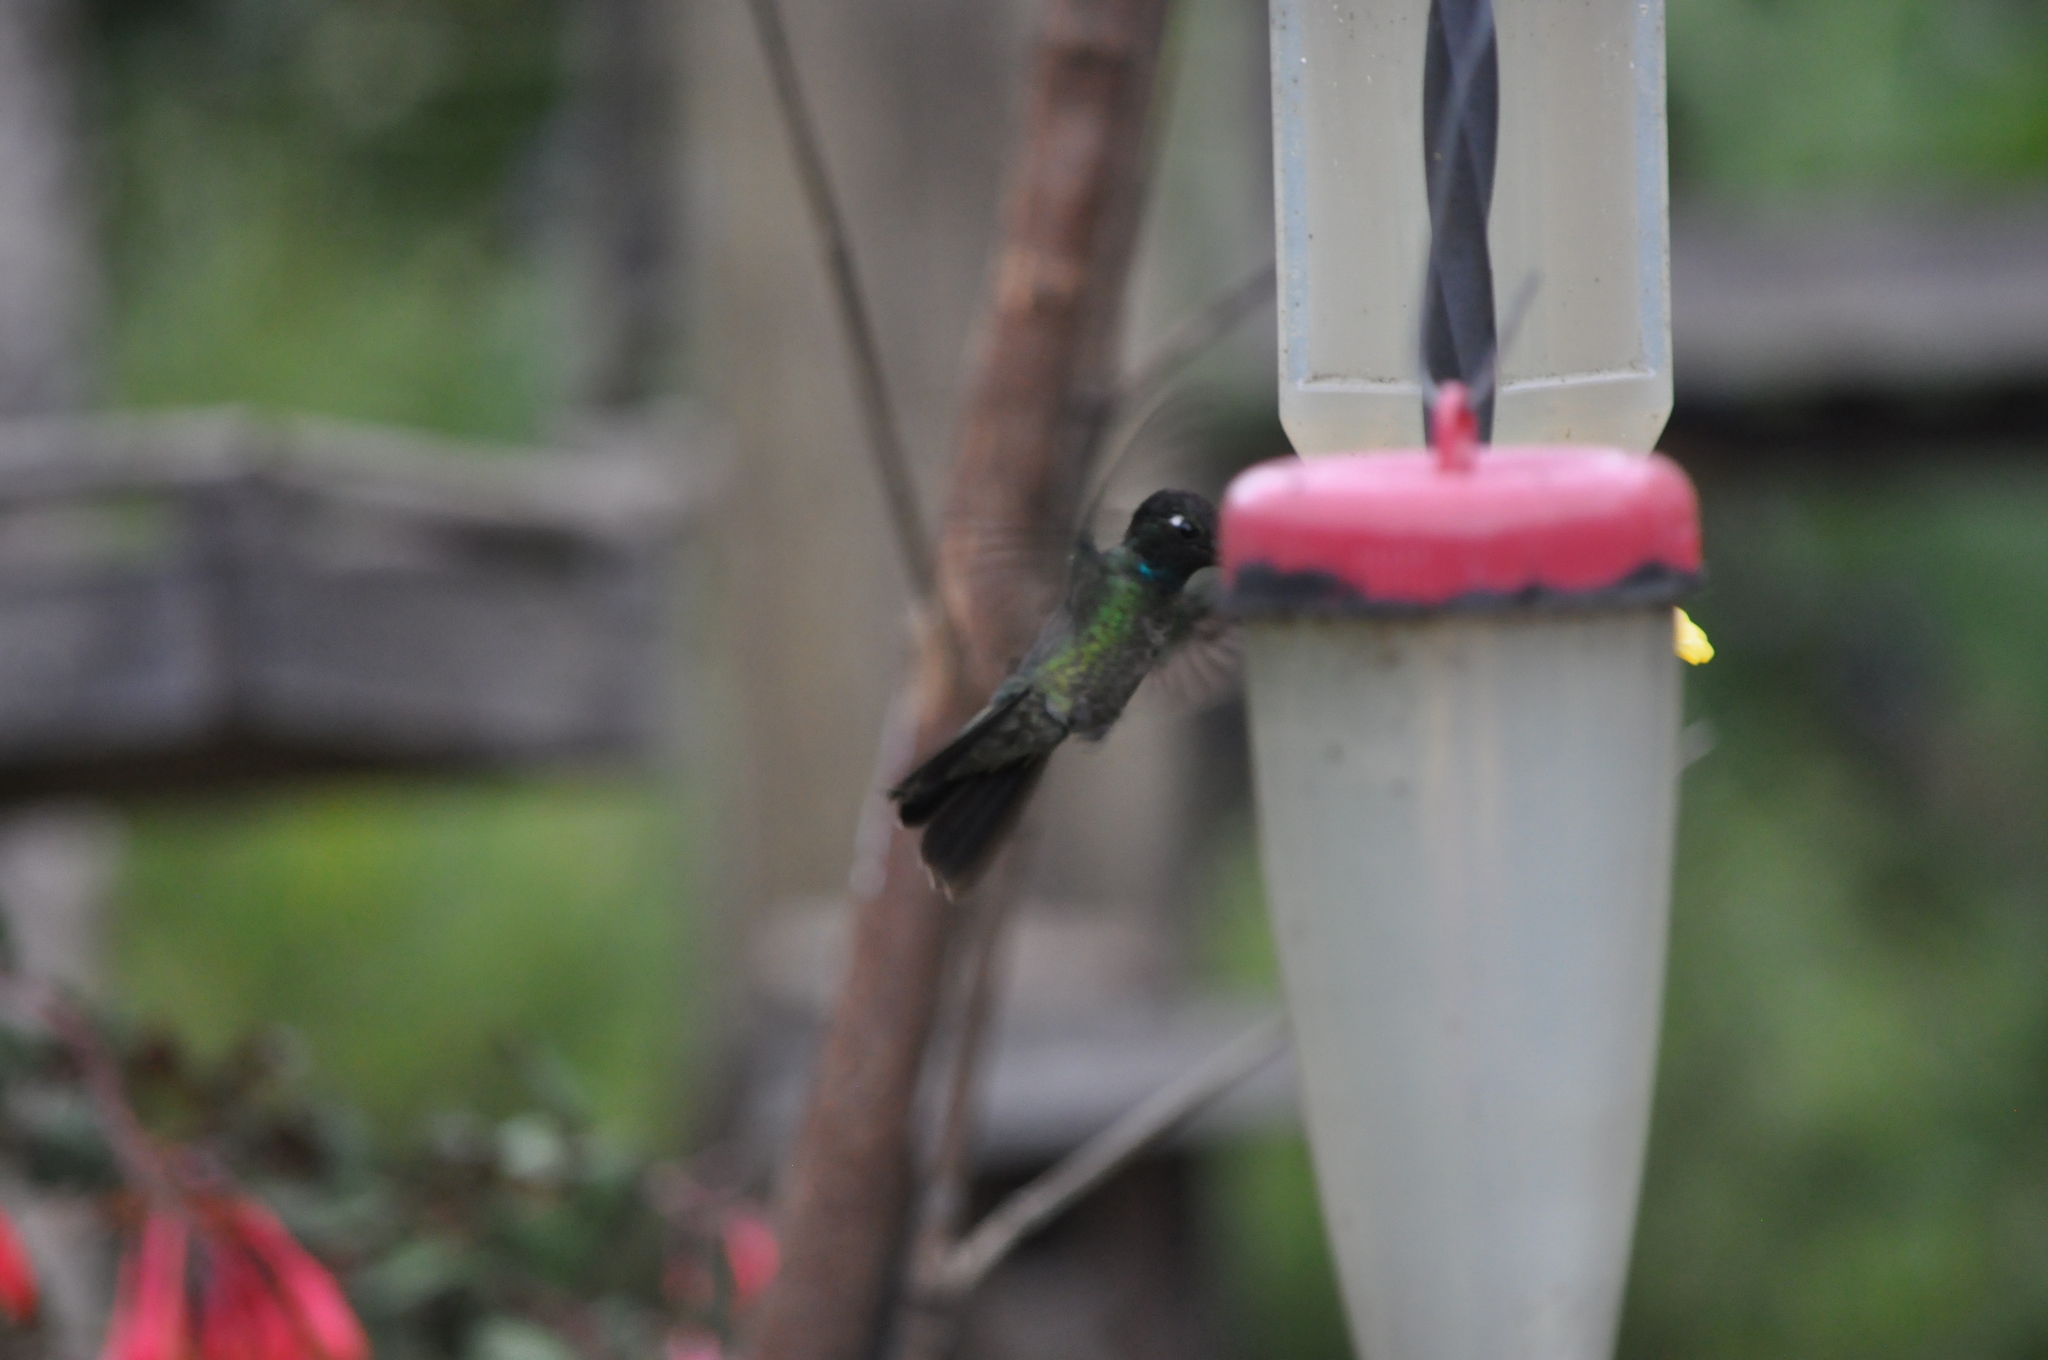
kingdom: Animalia
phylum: Chordata
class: Aves
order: Apodiformes
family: Trochilidae
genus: Eugenes
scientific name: Eugenes spectabilis
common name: Talamanca hummingbird
